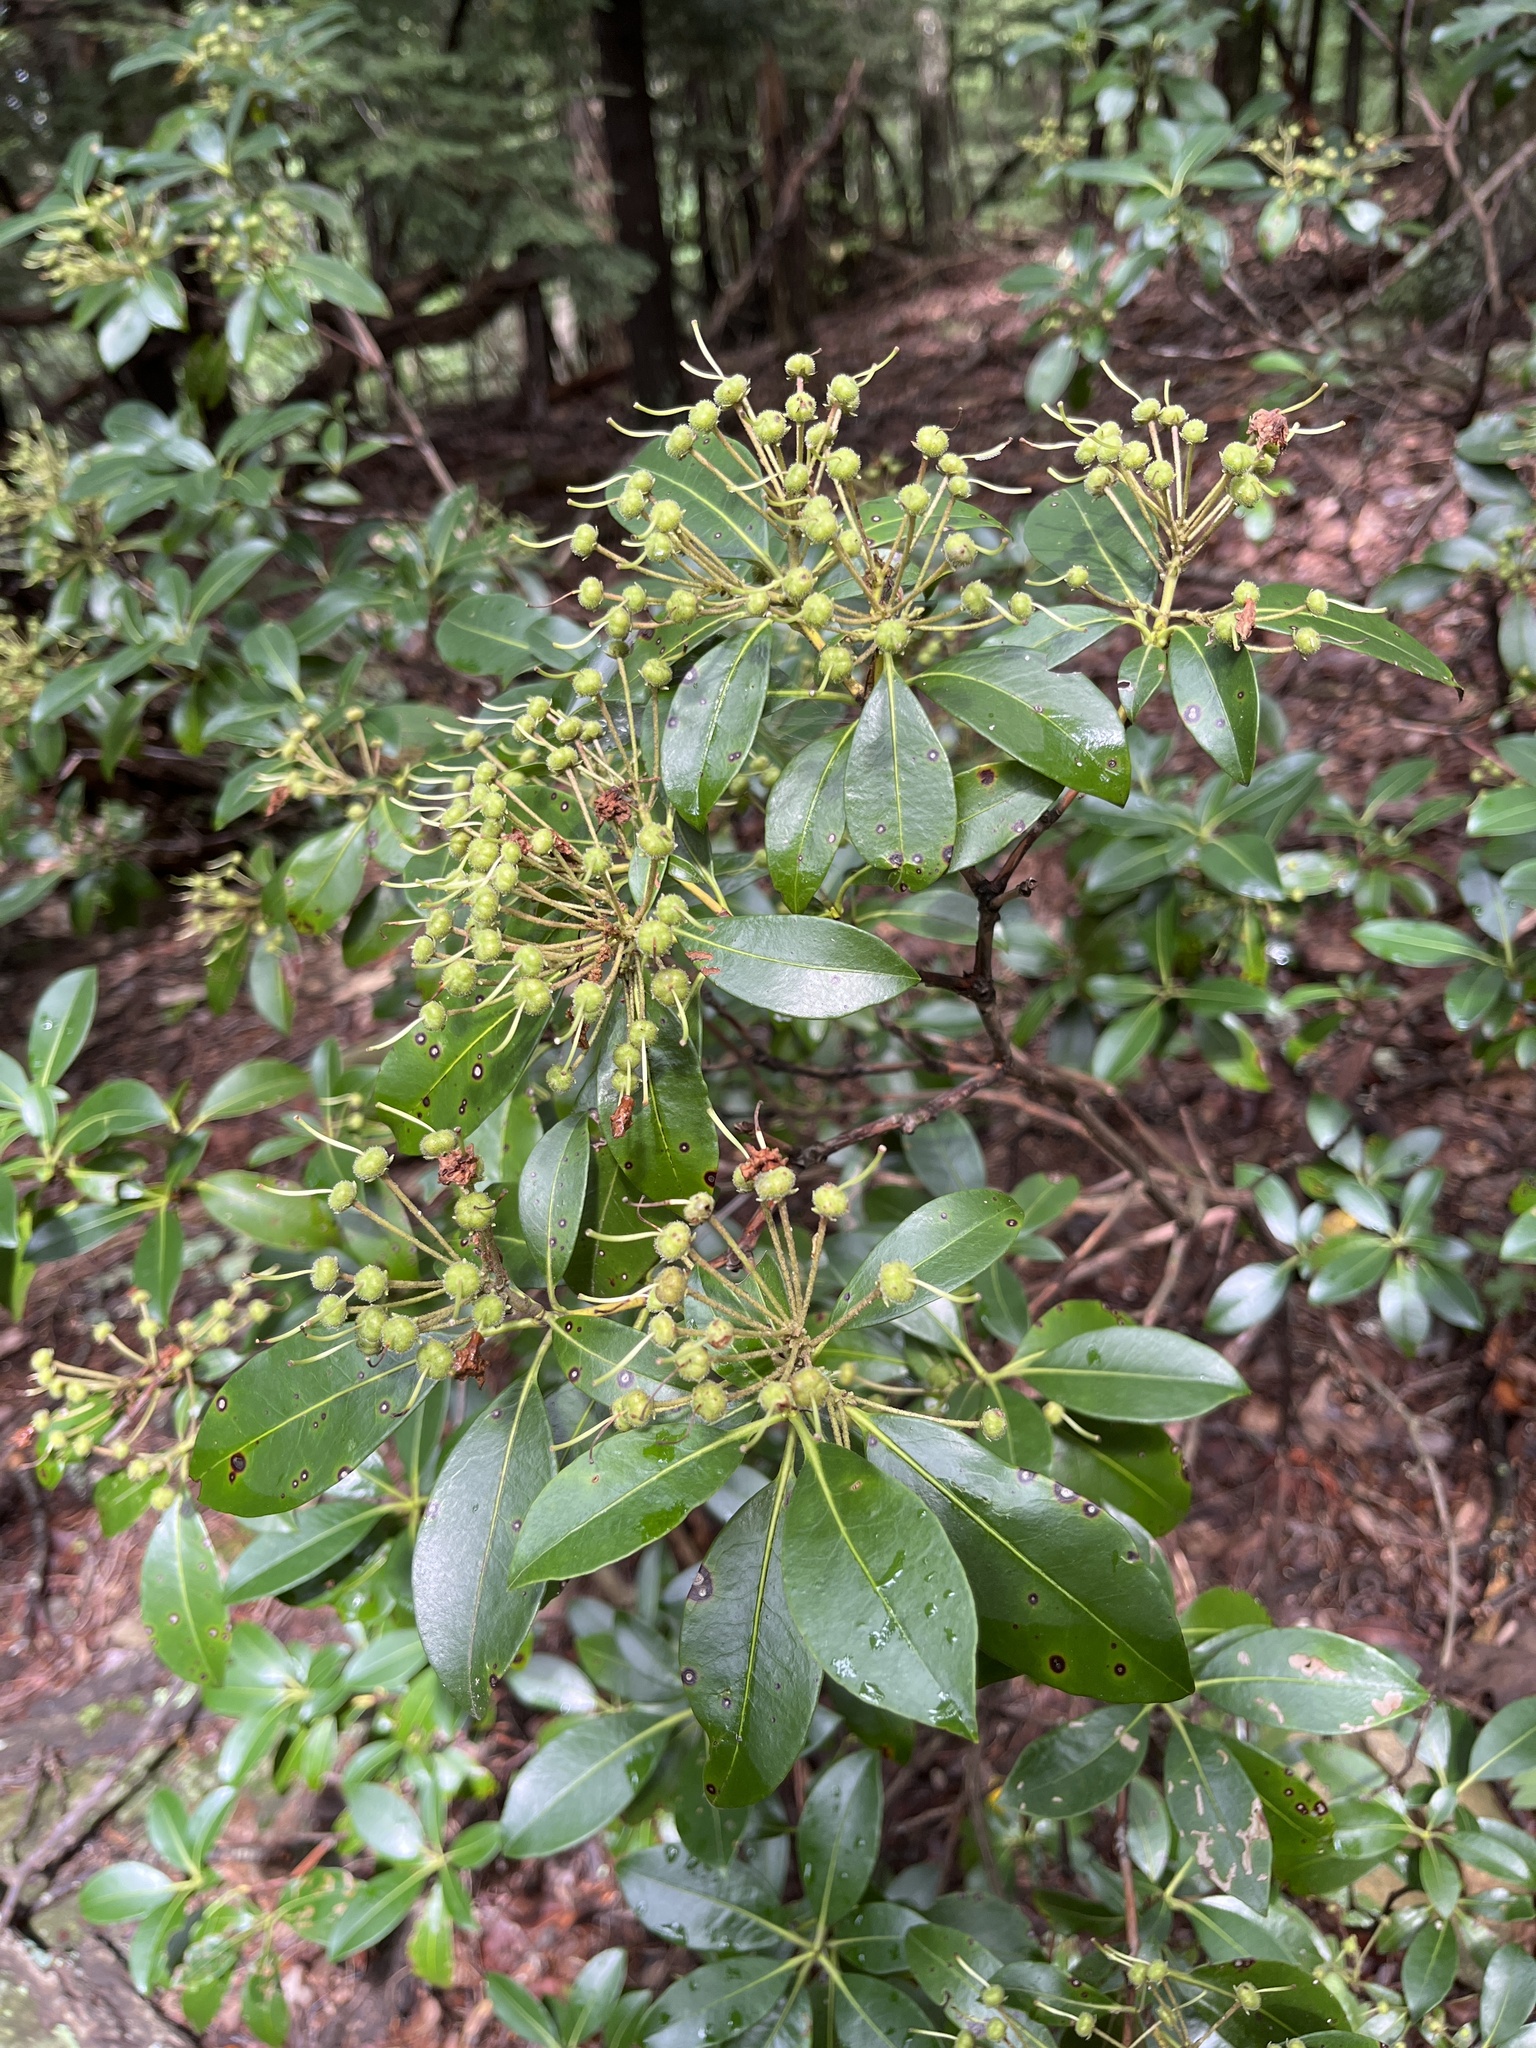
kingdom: Plantae
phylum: Tracheophyta
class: Magnoliopsida
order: Ericales
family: Ericaceae
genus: Kalmia
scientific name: Kalmia latifolia
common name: Mountain-laurel
